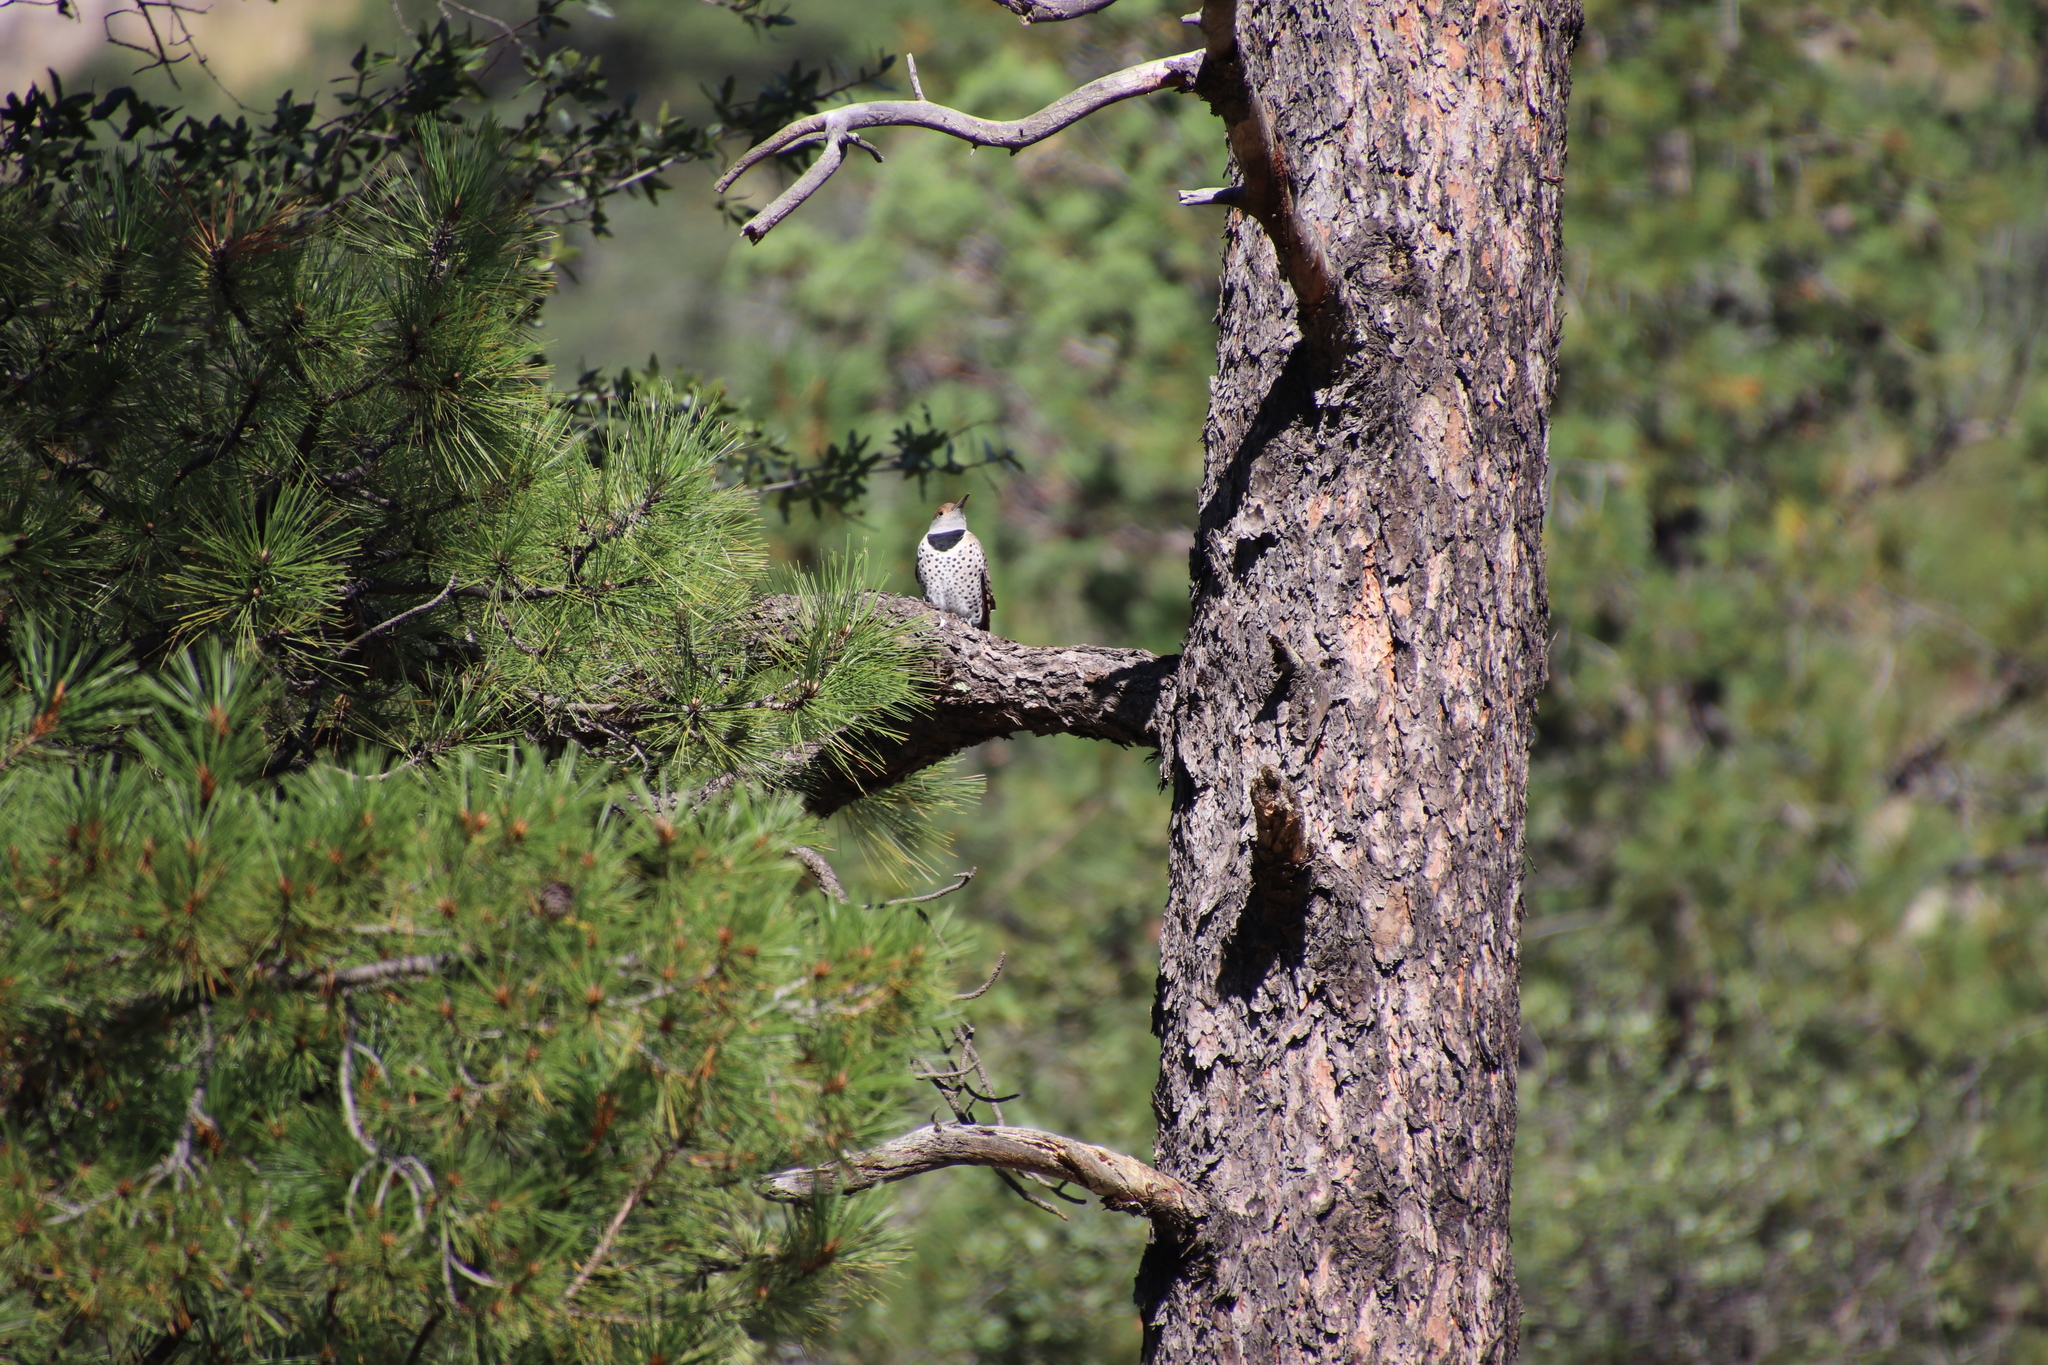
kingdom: Animalia
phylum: Chordata
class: Aves
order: Piciformes
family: Picidae
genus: Colaptes
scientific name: Colaptes auratus
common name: Northern flicker
